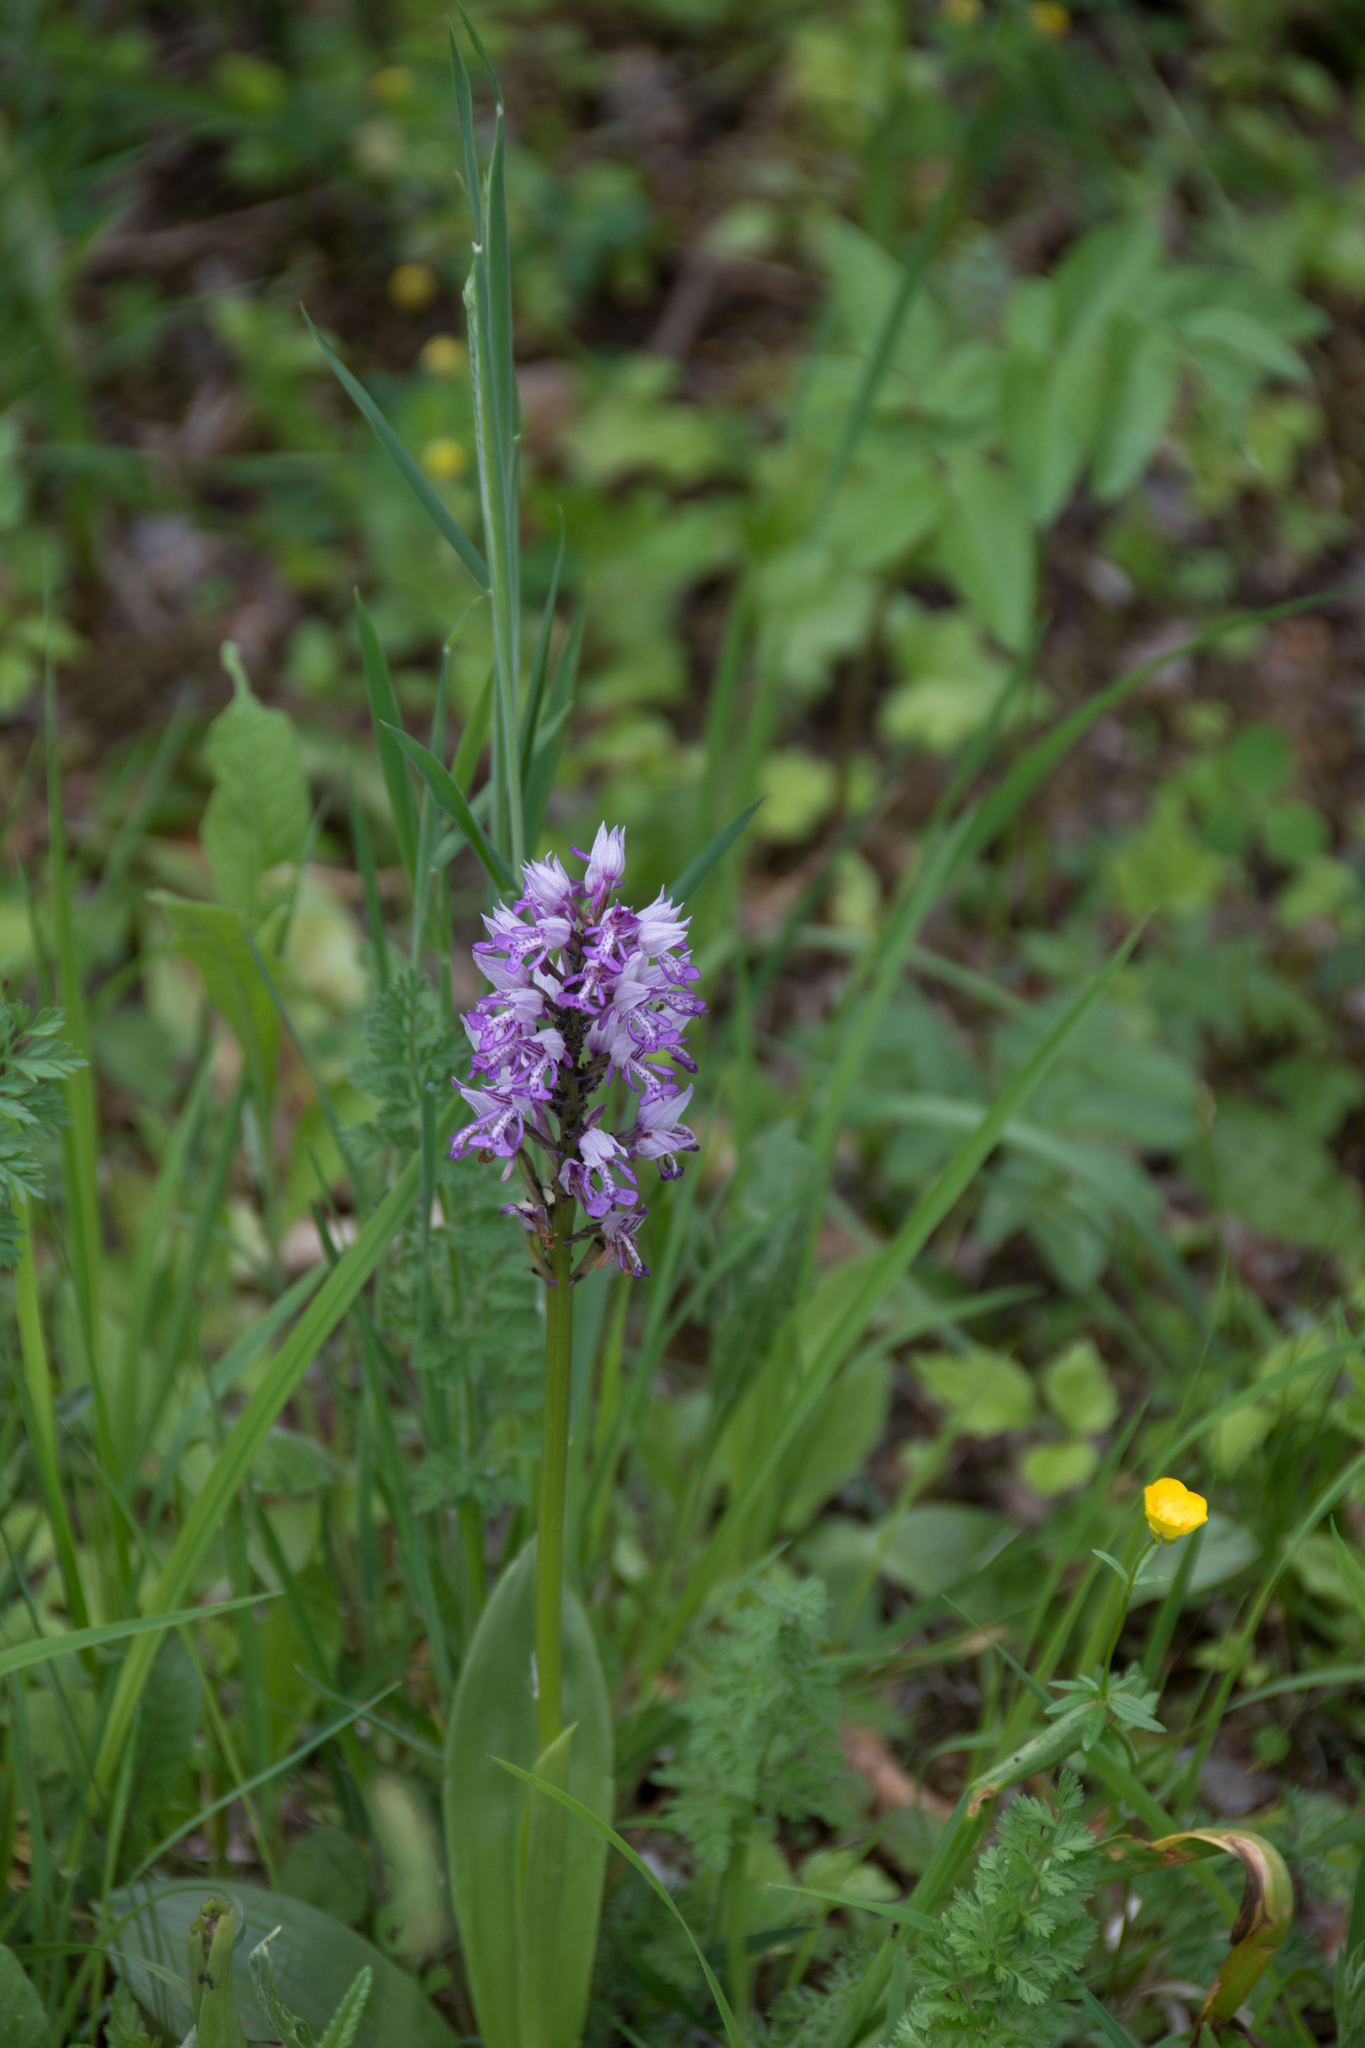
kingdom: Plantae
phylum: Tracheophyta
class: Liliopsida
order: Asparagales
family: Orchidaceae
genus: Orchis
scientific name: Orchis militaris
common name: Military orchid
